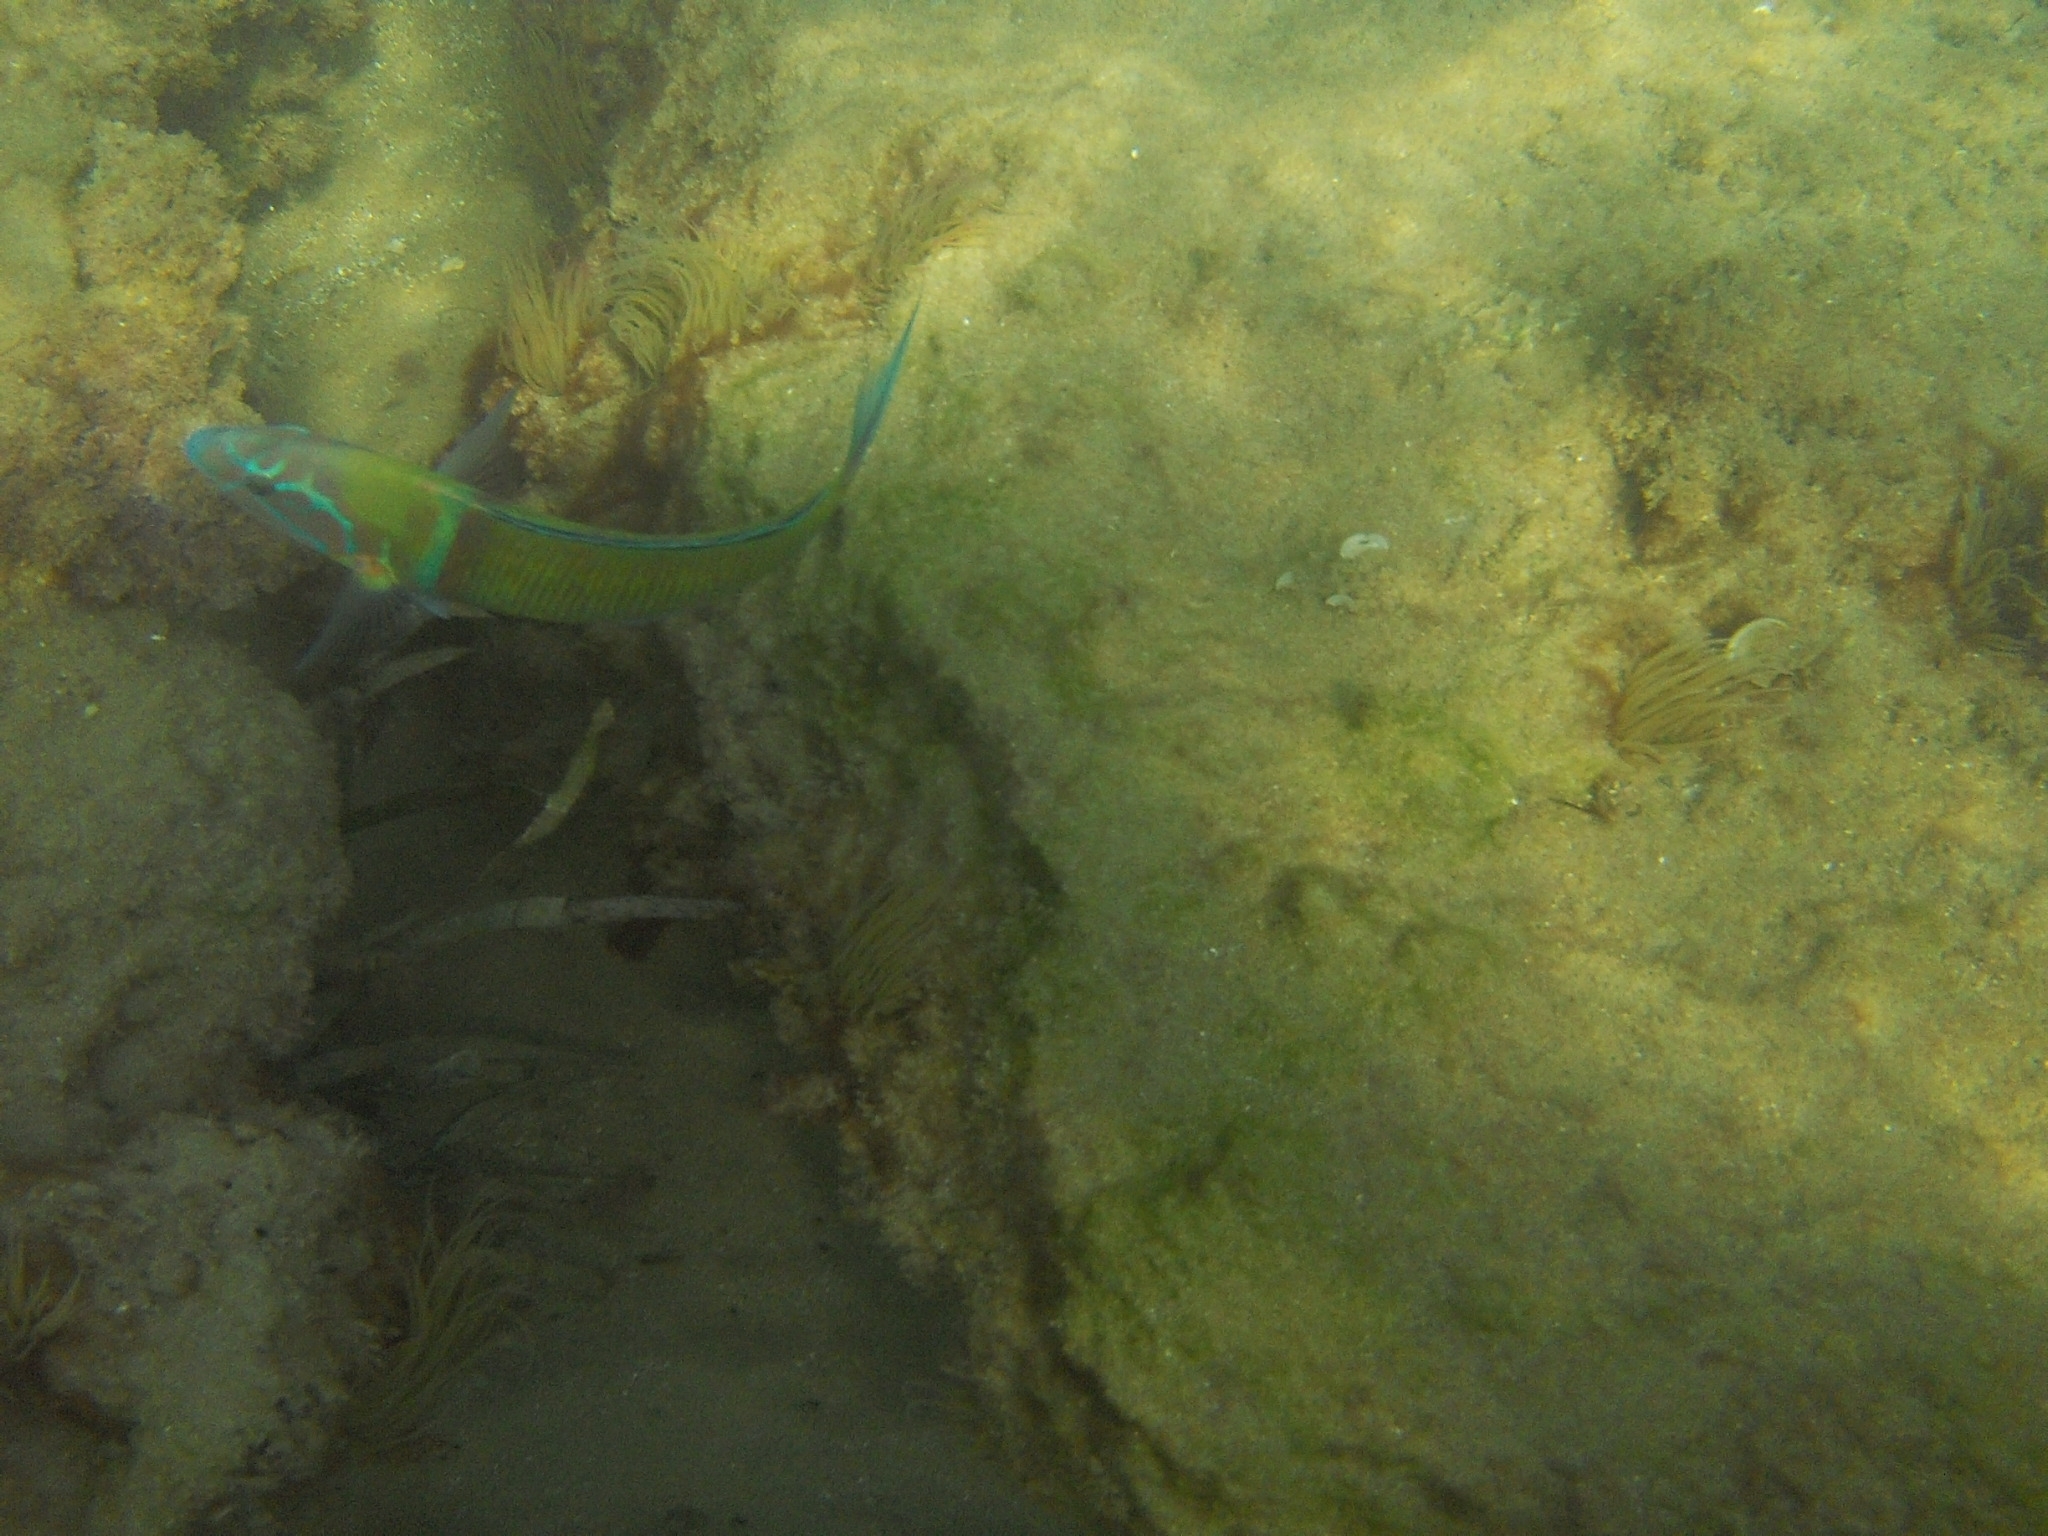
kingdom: Animalia
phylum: Cnidaria
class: Anthozoa
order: Actiniaria
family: Actiniidae
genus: Anemonia
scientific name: Anemonia viridis
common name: Snakelocks anemone
